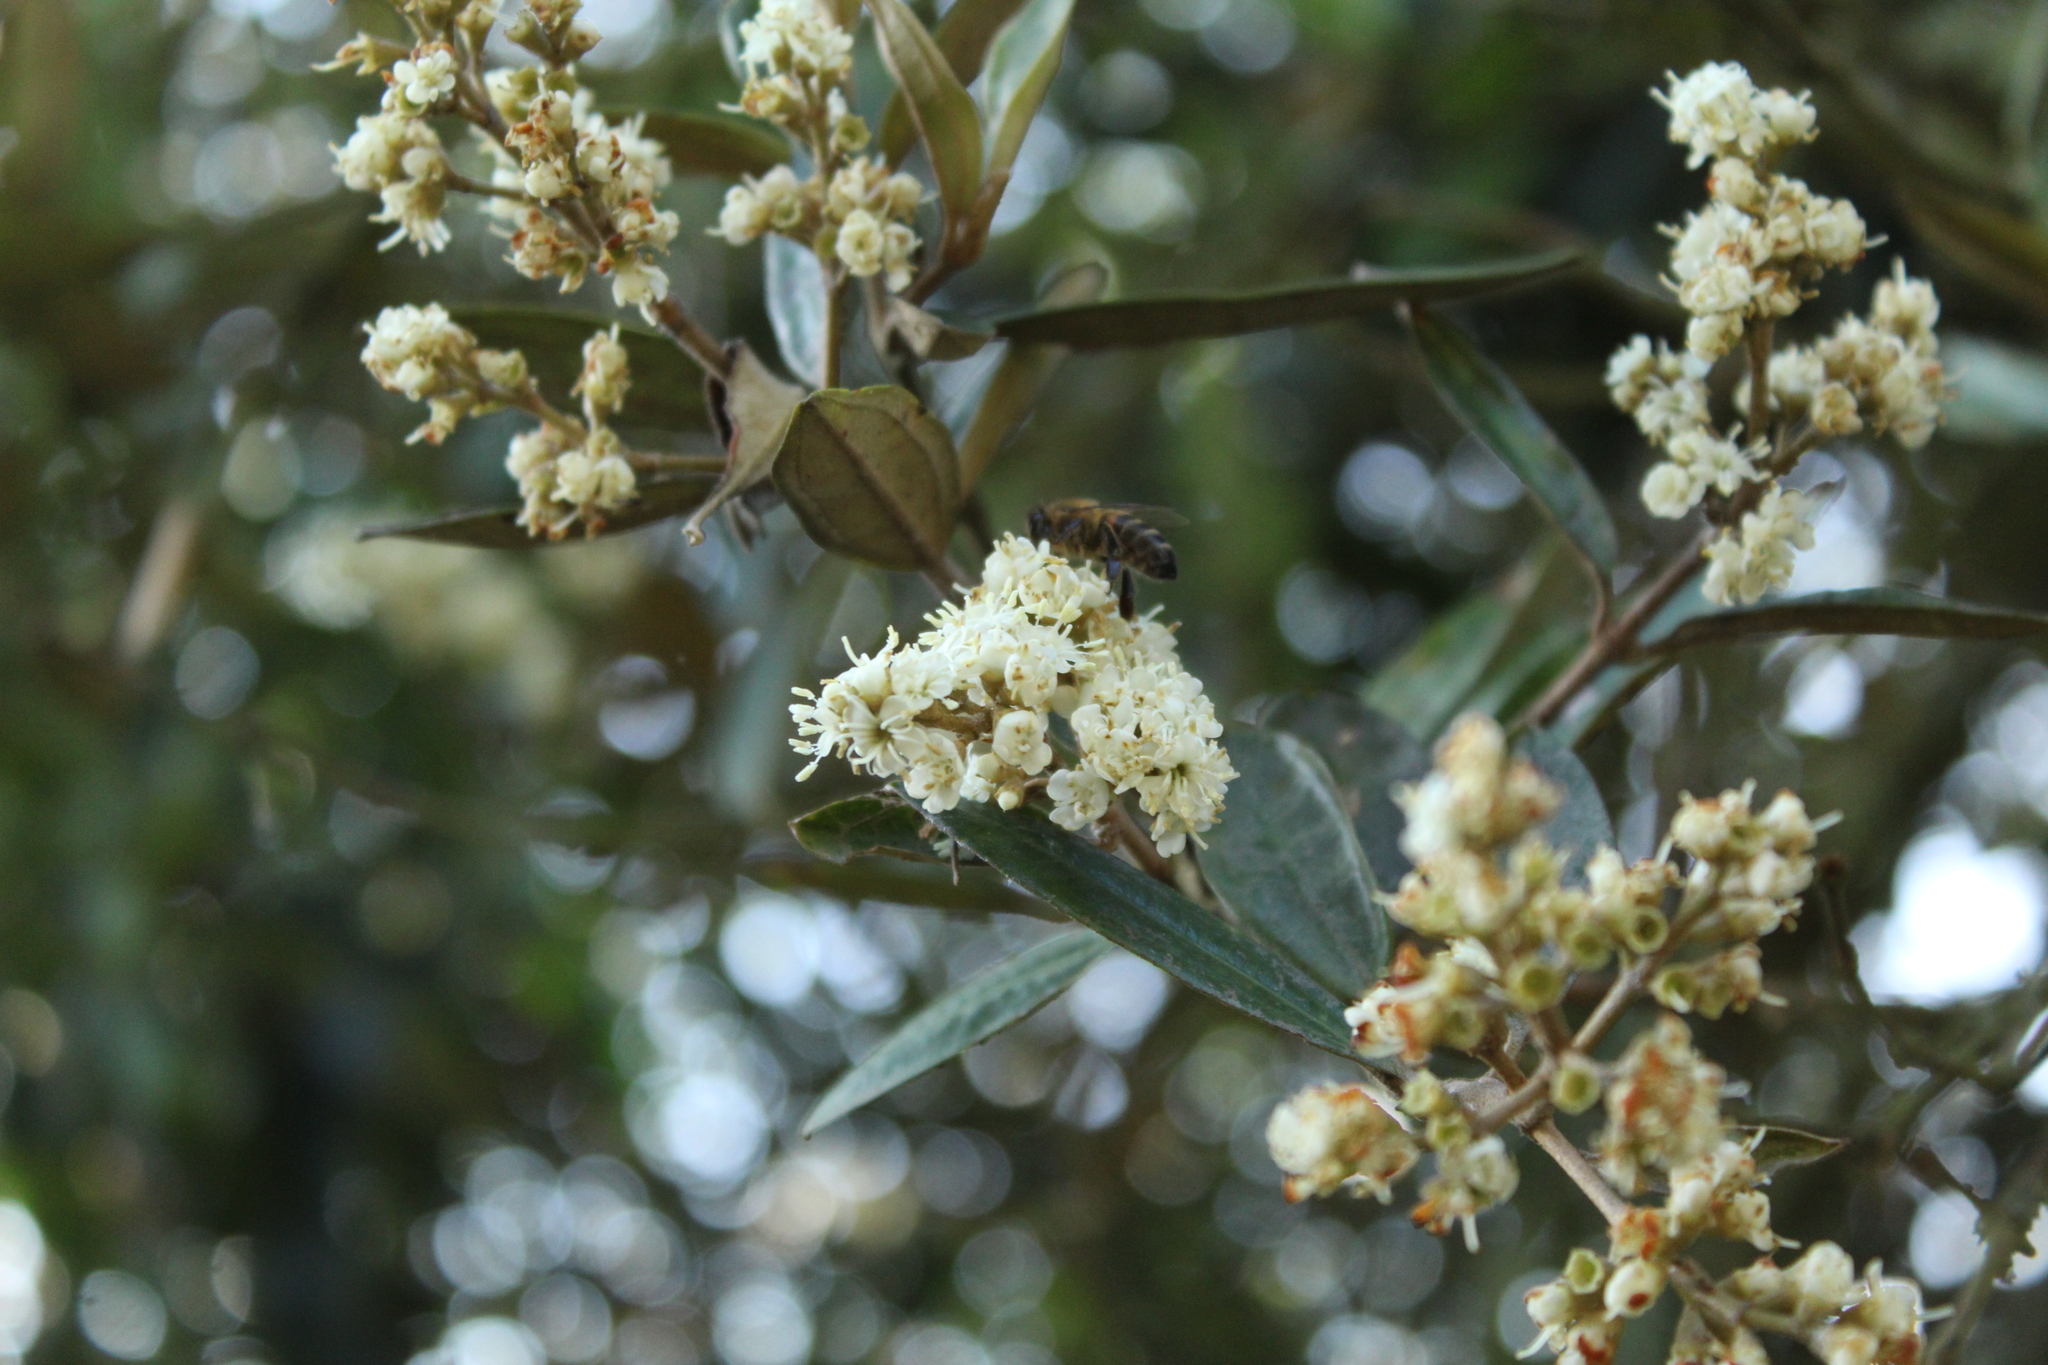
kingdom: Plantae
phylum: Tracheophyta
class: Magnoliopsida
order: Myrtales
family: Melastomataceae
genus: Miconia
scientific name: Miconia squamulosa
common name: Squamulose maya
